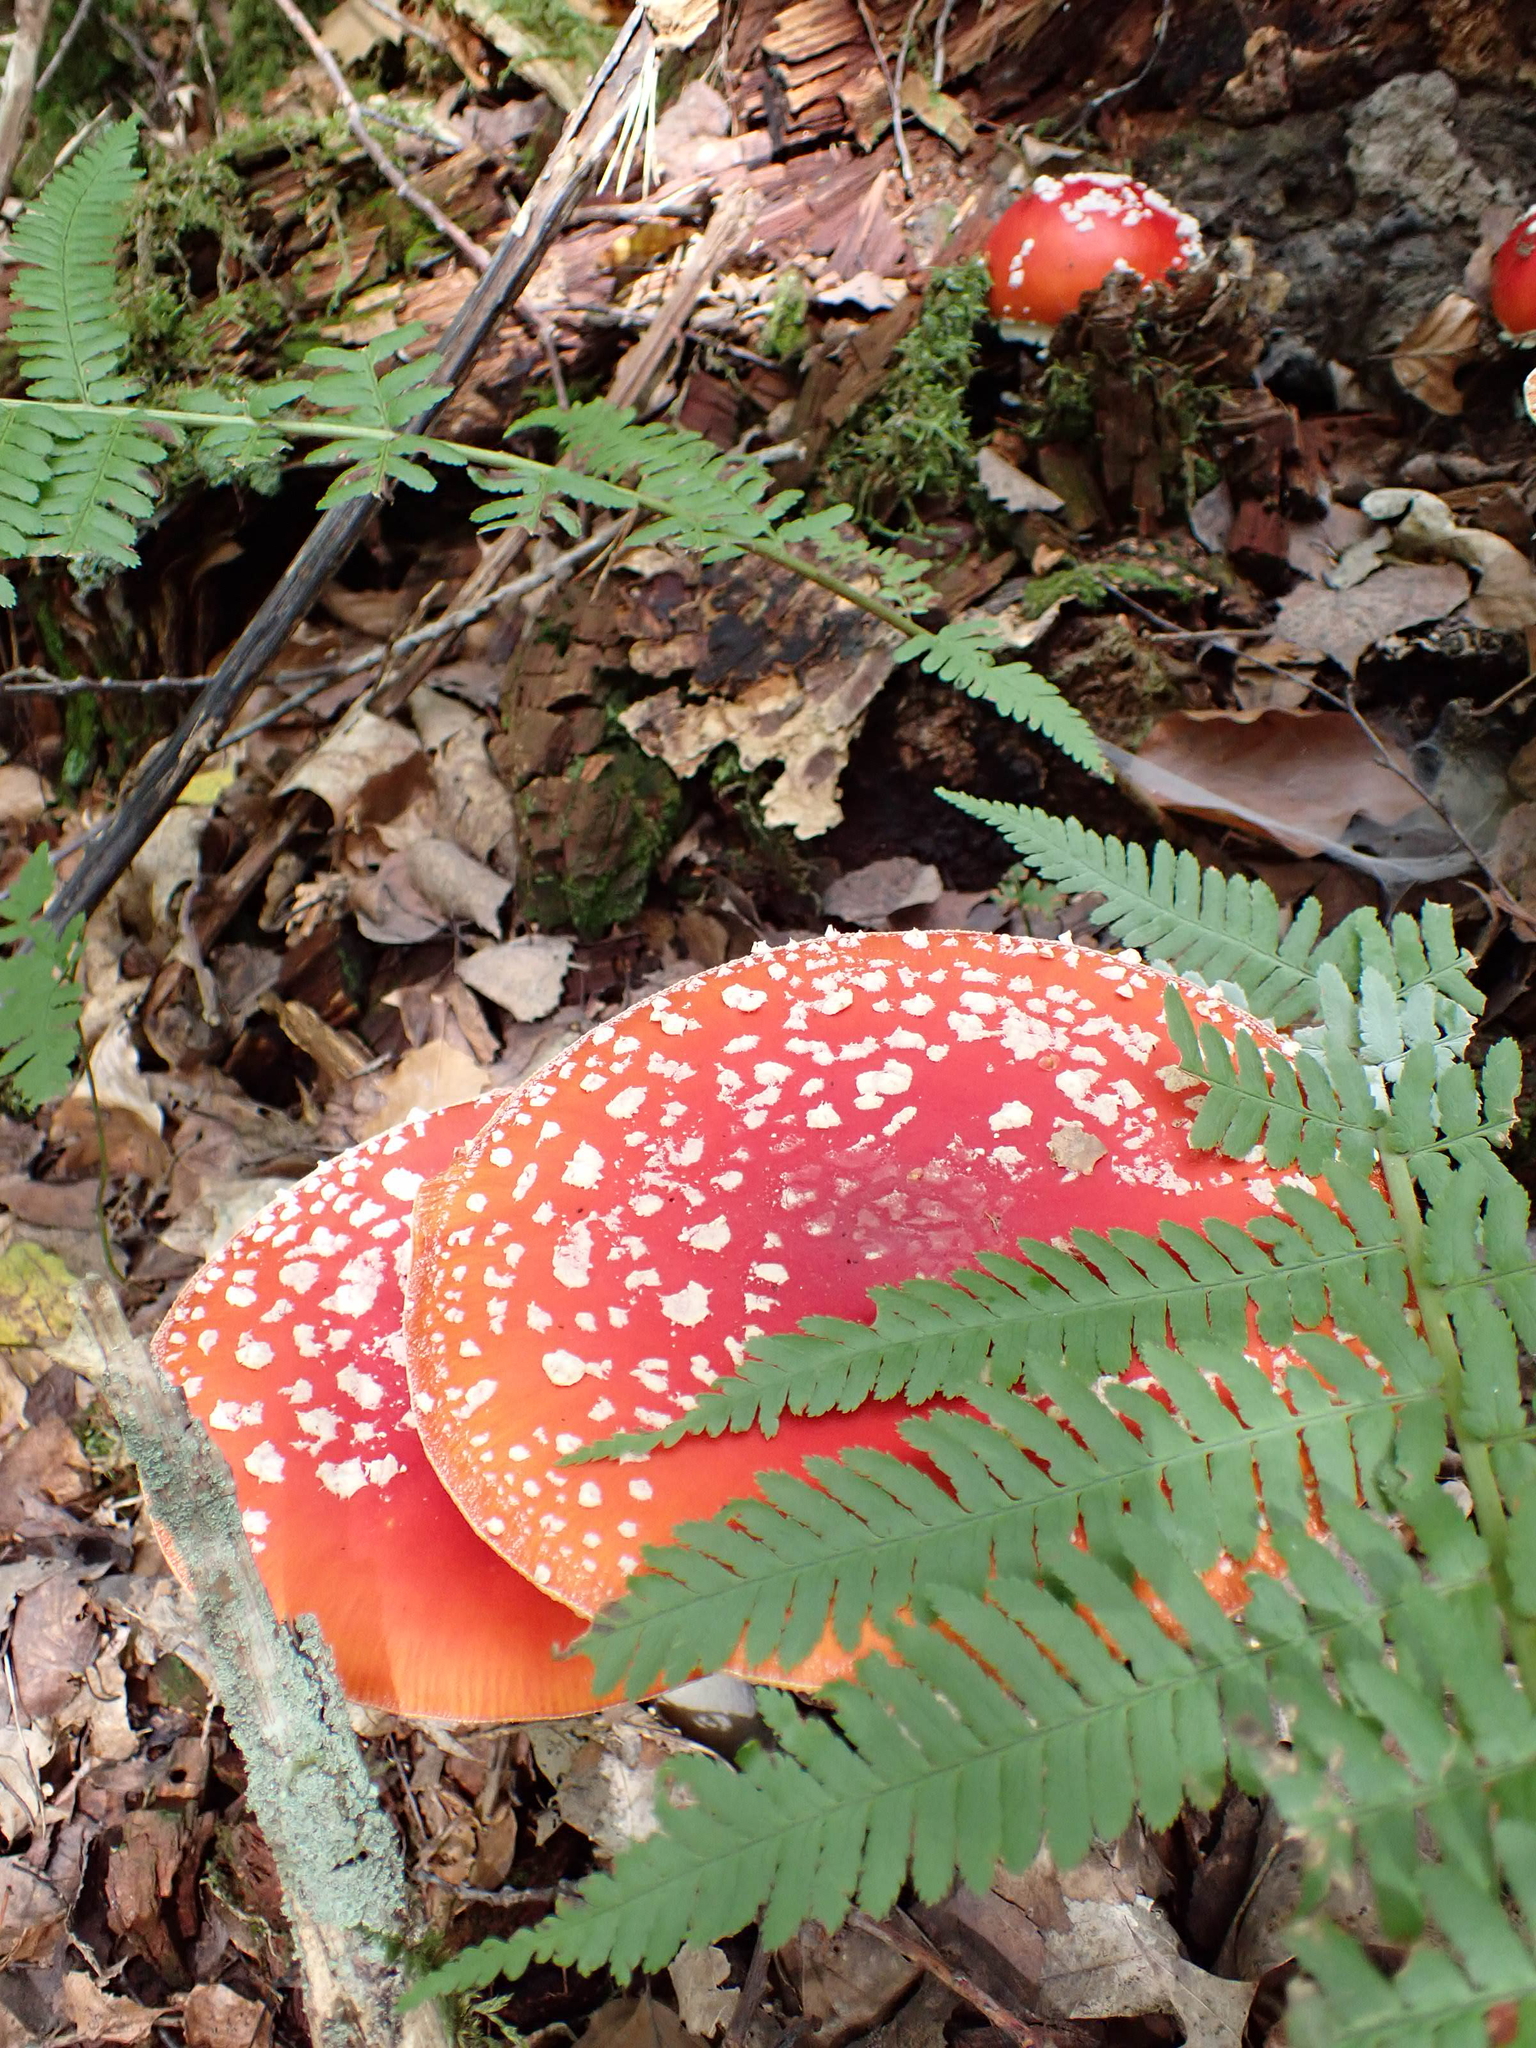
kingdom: Fungi
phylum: Basidiomycota
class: Agaricomycetes
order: Agaricales
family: Amanitaceae
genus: Amanita
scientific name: Amanita muscaria
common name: Fly agaric
